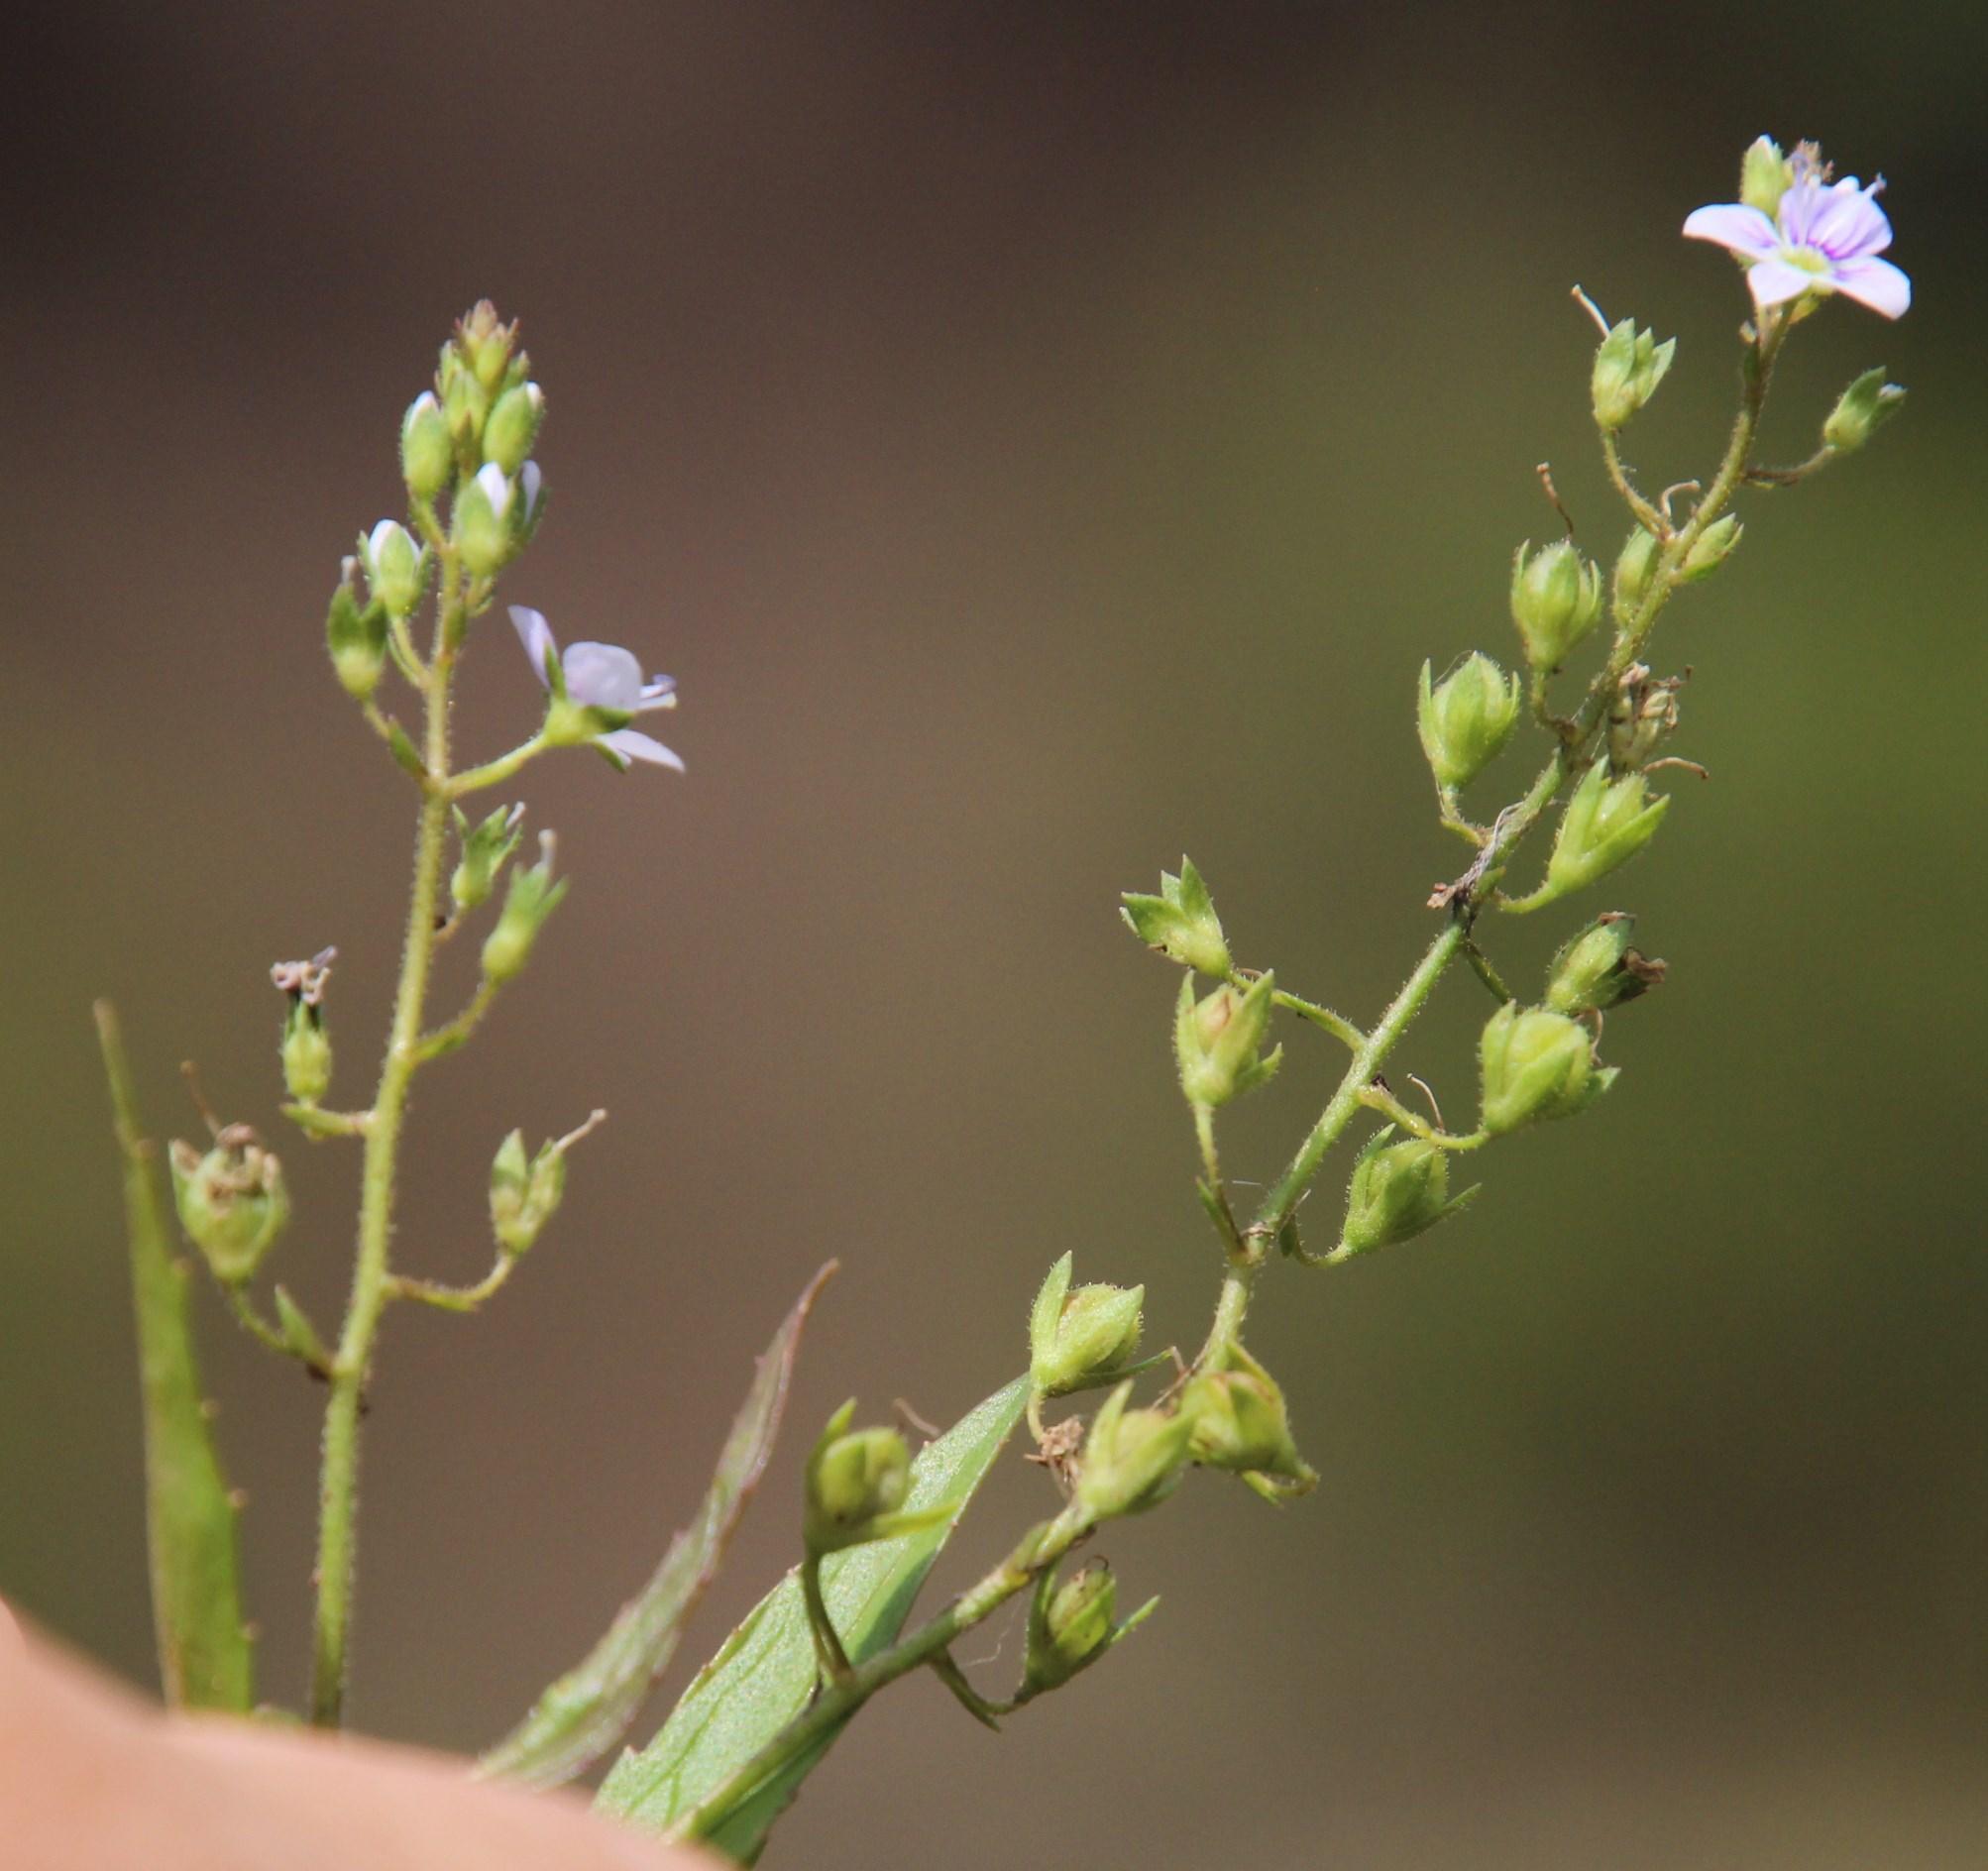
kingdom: Plantae
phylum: Tracheophyta
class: Magnoliopsida
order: Lamiales
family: Plantaginaceae
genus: Veronica
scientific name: Veronica anagallis-aquatica
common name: Water speedwell
